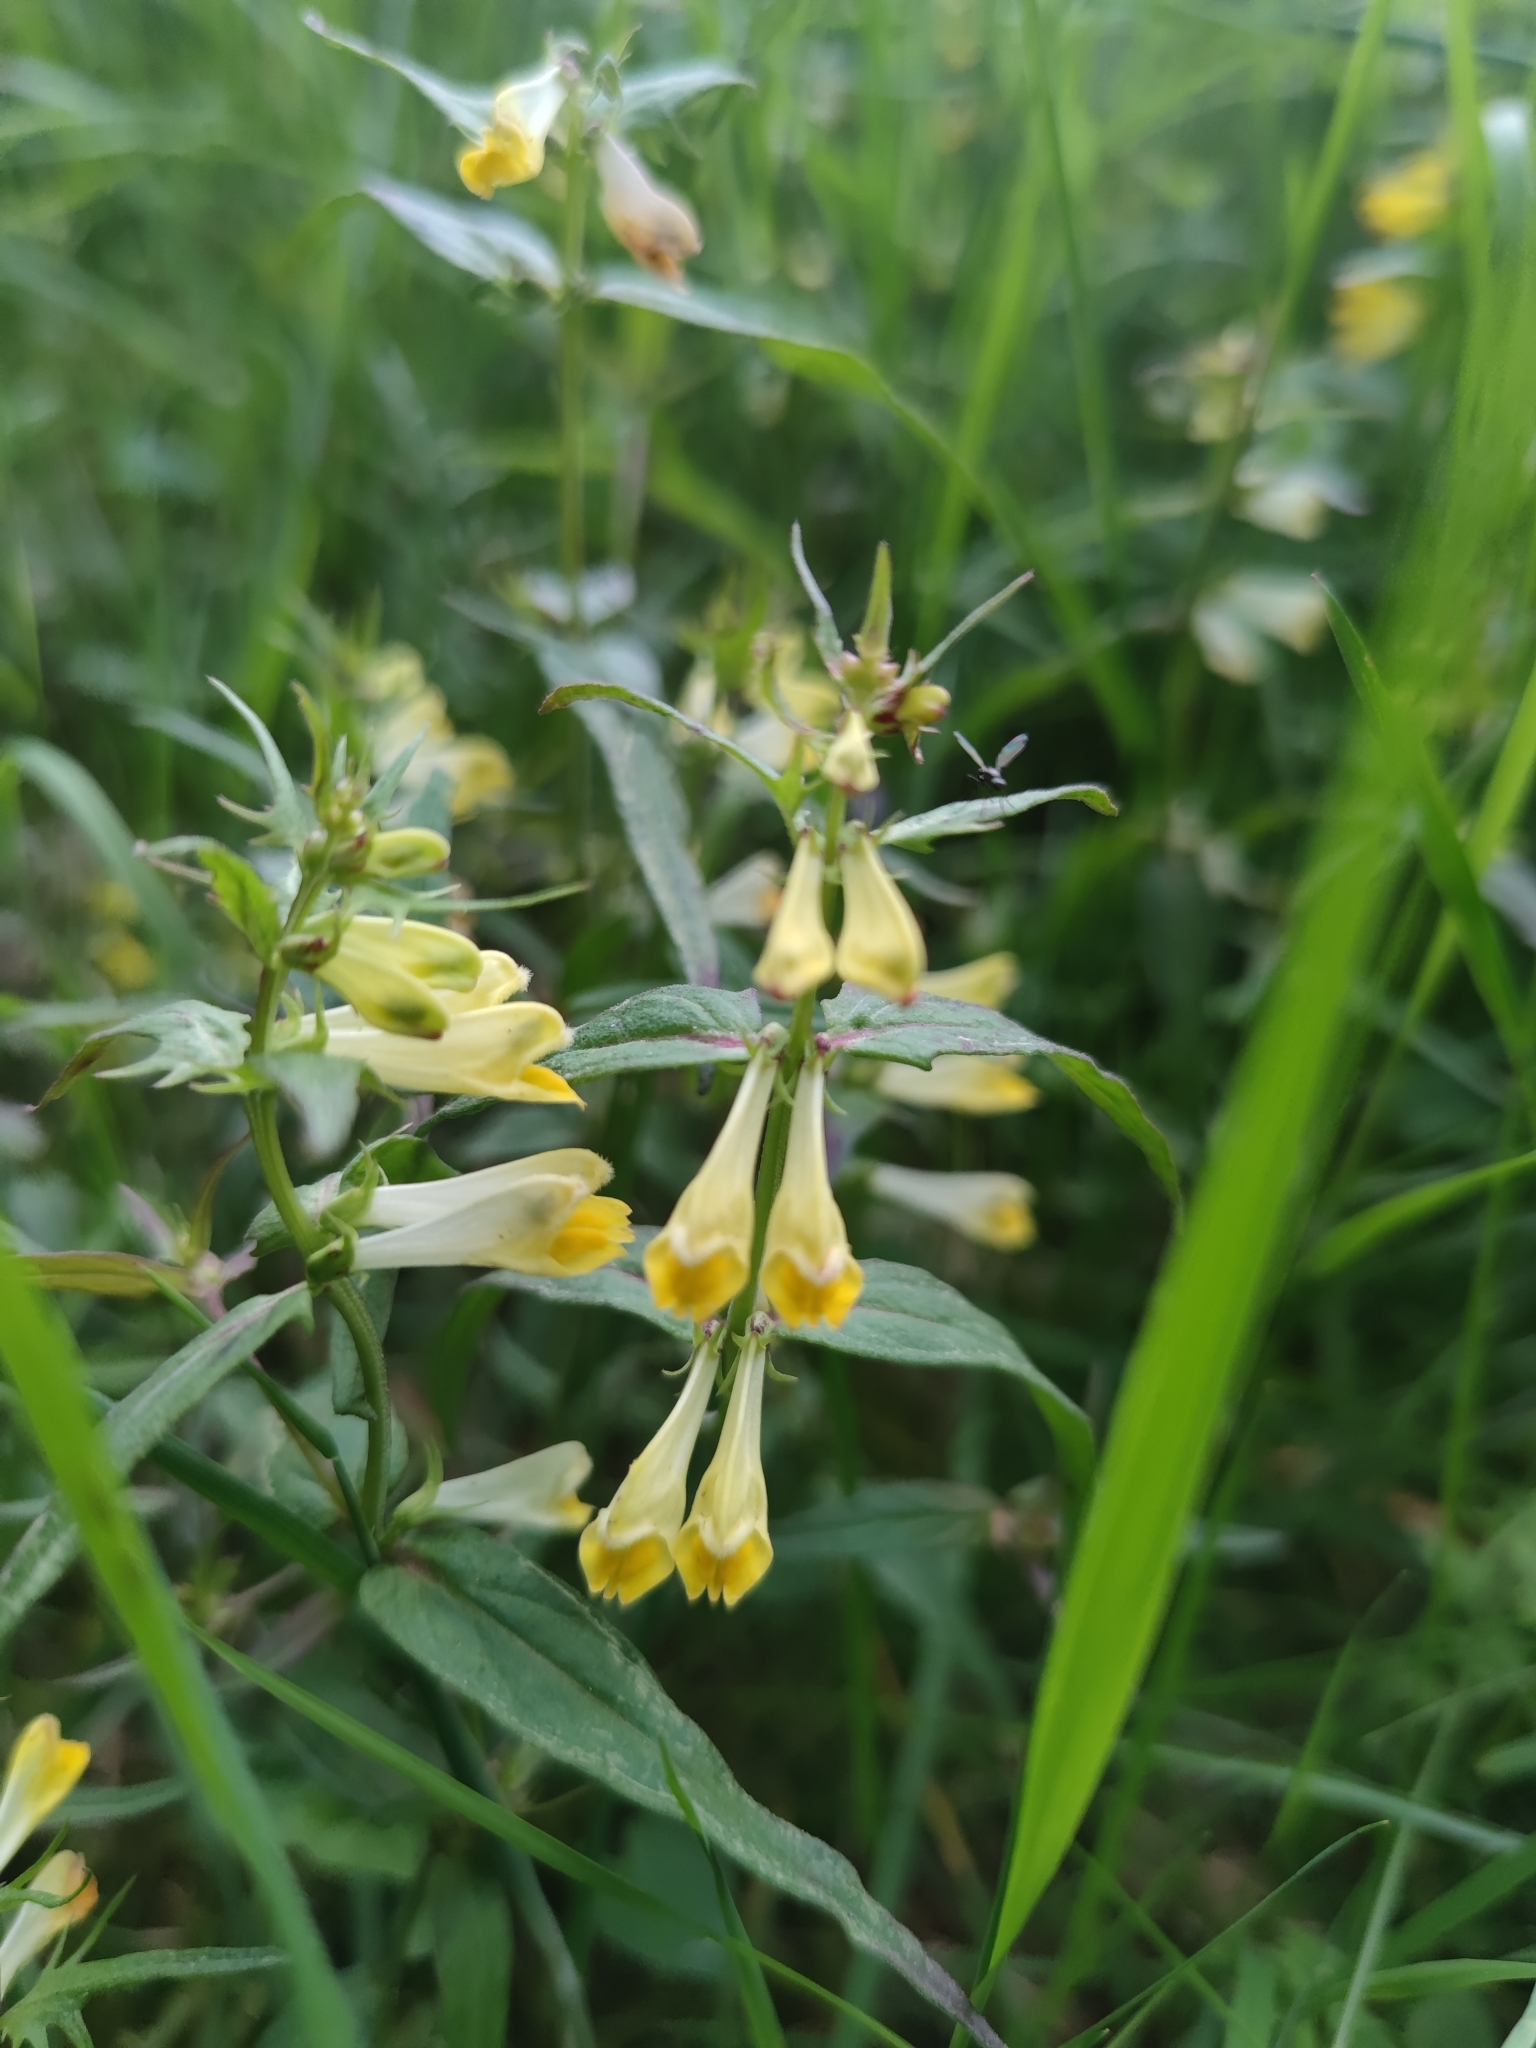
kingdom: Plantae
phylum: Tracheophyta
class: Magnoliopsida
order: Lamiales
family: Orobanchaceae
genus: Melampyrum
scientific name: Melampyrum pratense
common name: Common cow-wheat
